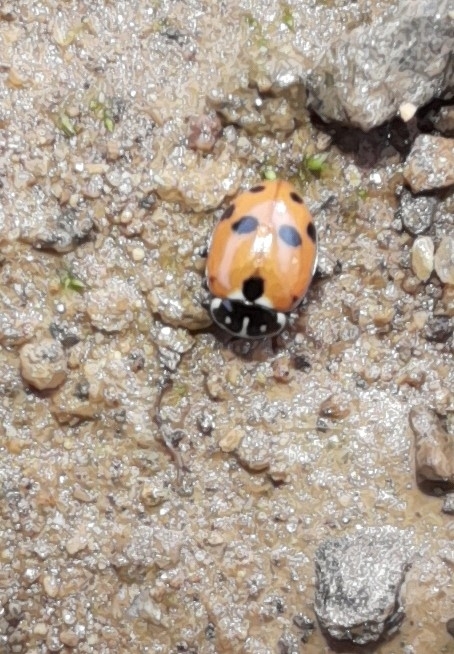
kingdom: Animalia
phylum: Arthropoda
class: Insecta
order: Coleoptera
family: Coccinellidae
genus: Hippodamia
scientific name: Hippodamia variegata
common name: Ladybird beetle
